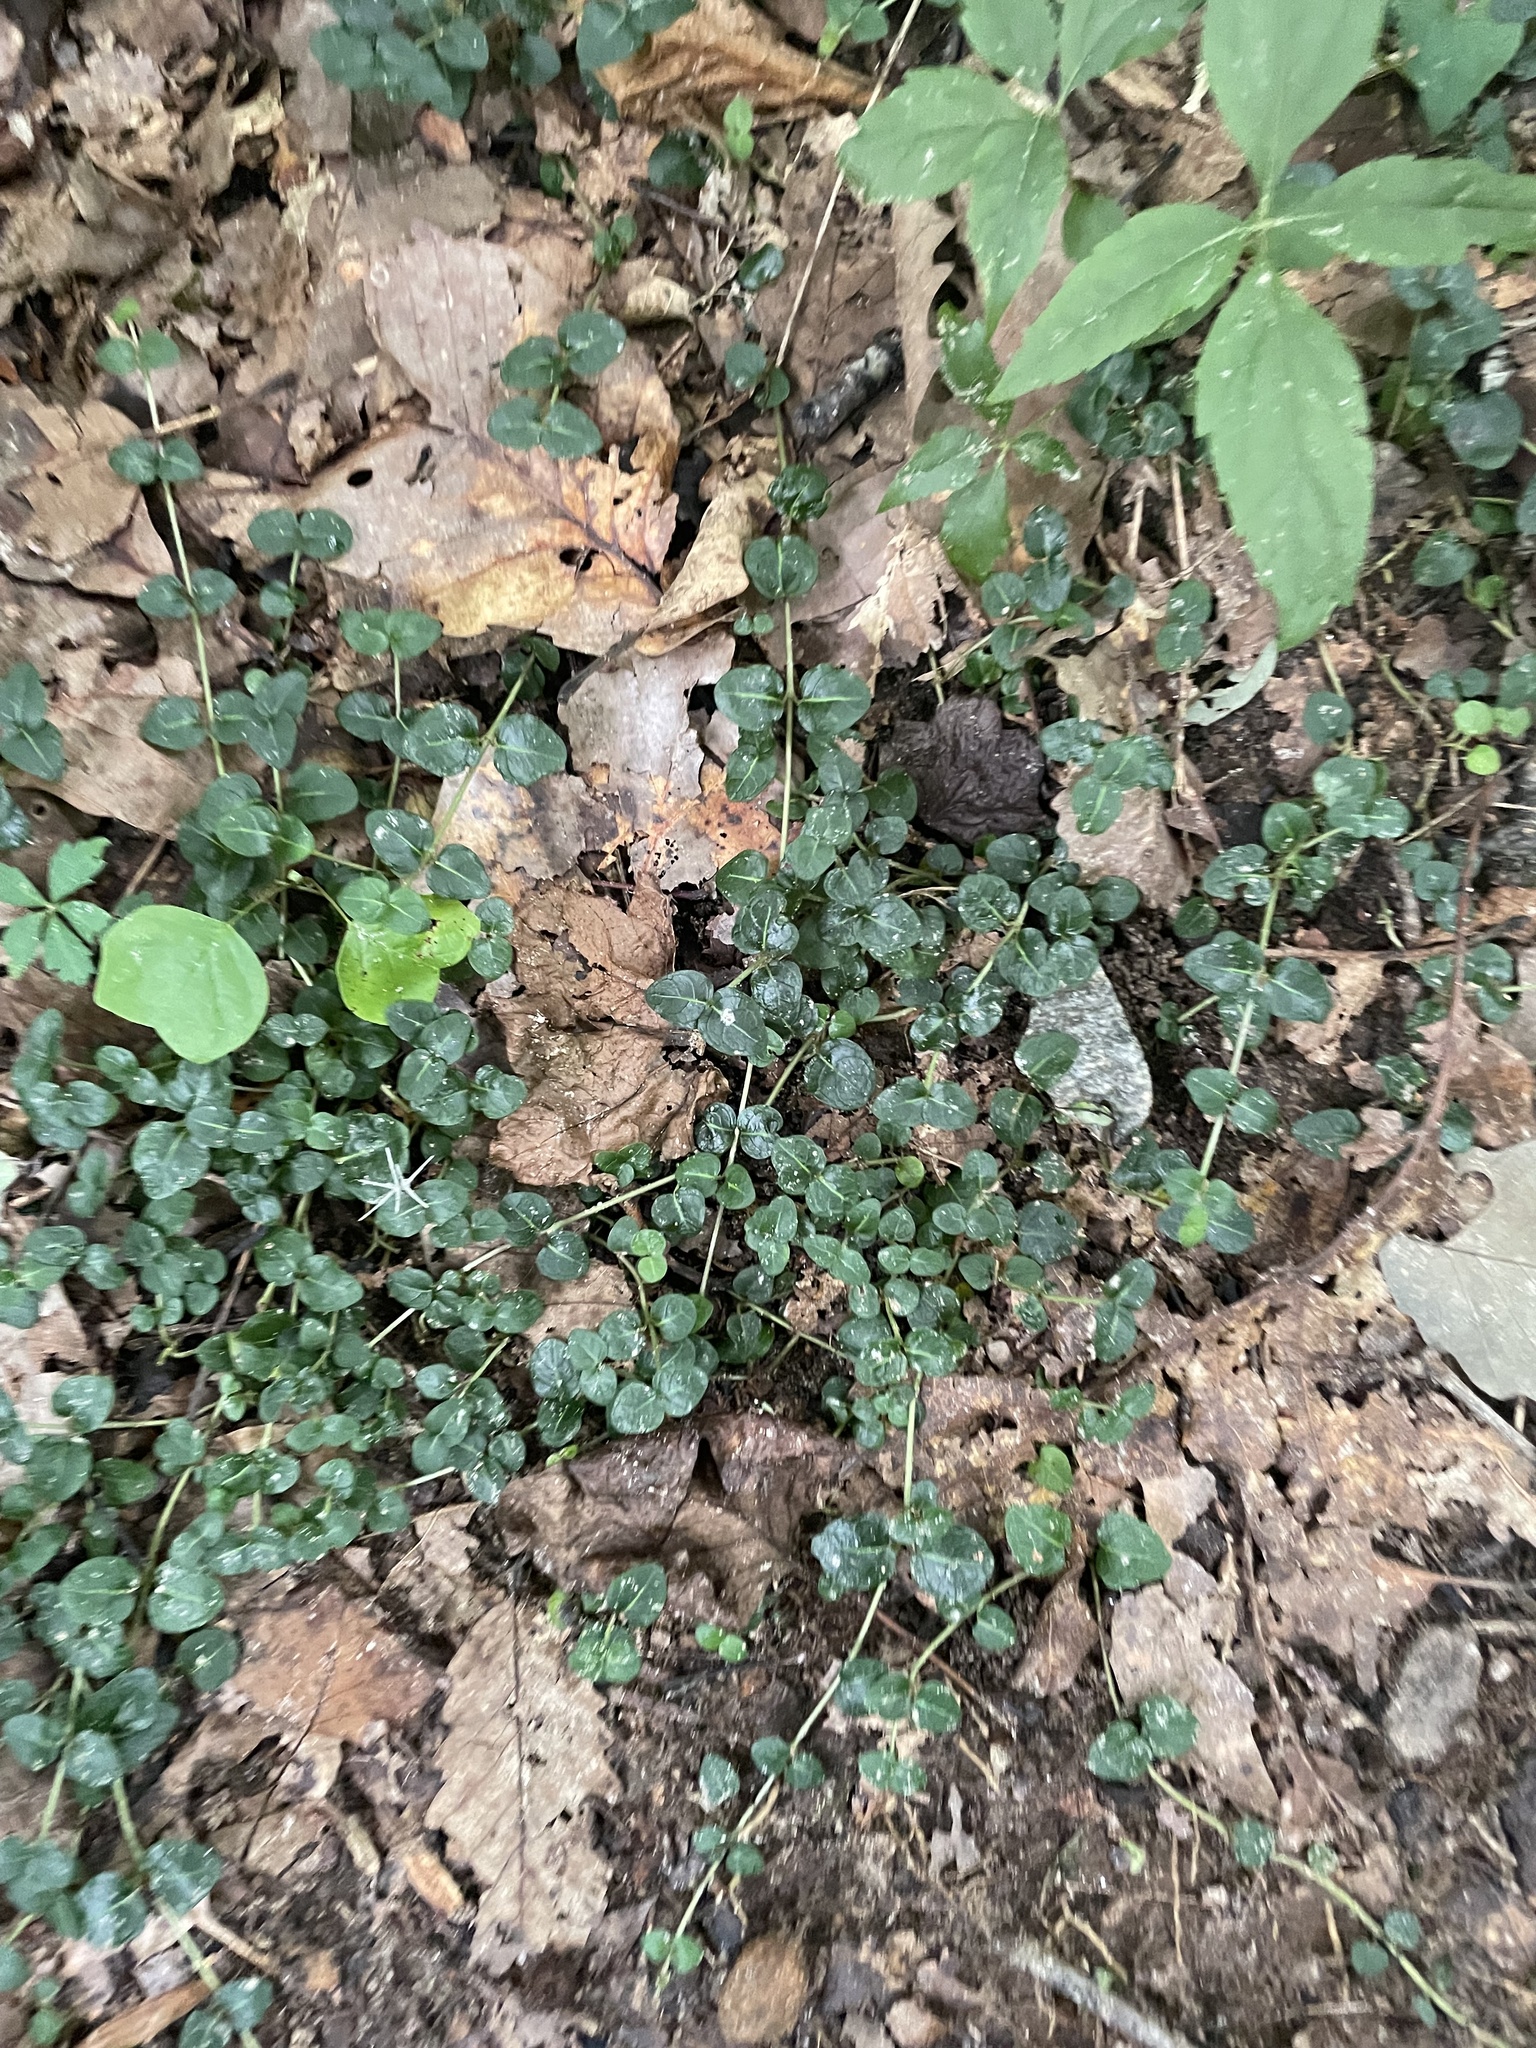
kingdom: Plantae
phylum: Tracheophyta
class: Magnoliopsida
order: Gentianales
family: Rubiaceae
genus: Mitchella
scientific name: Mitchella repens
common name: Partridge-berry
